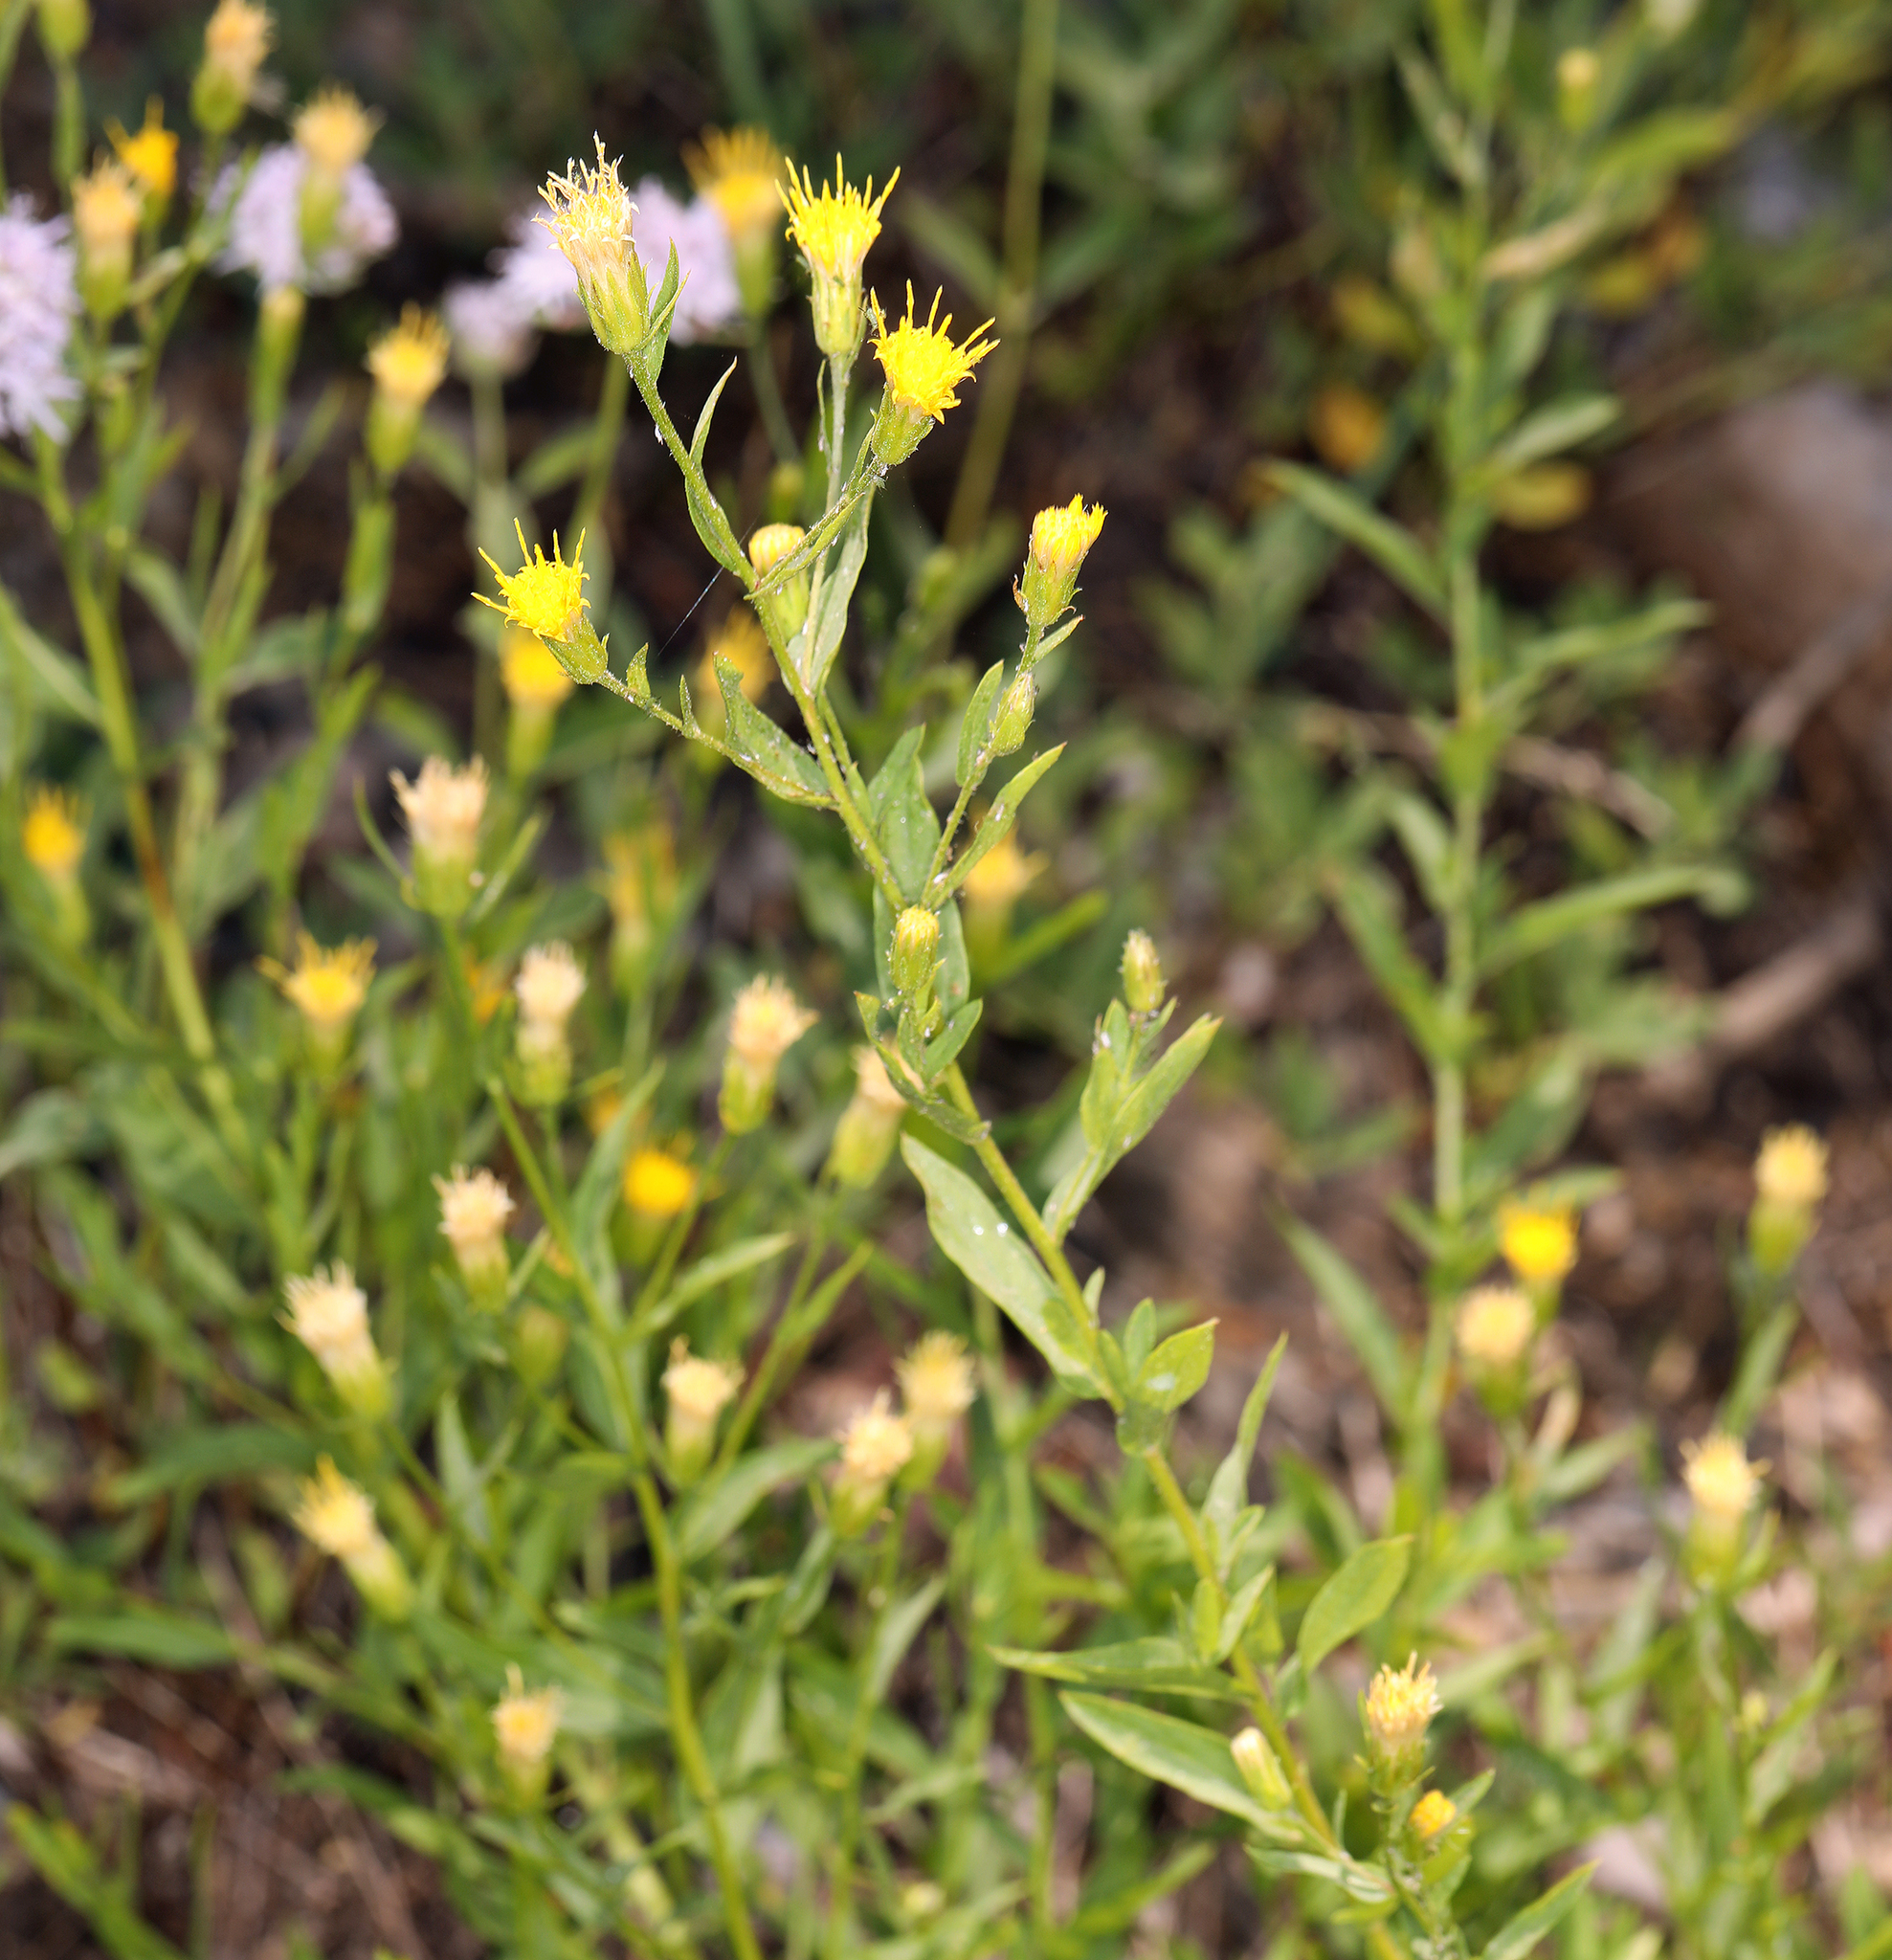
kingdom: Plantae
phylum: Tracheophyta
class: Magnoliopsida
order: Asterales
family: Asteraceae
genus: Eucephalus
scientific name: Eucephalus breweri
